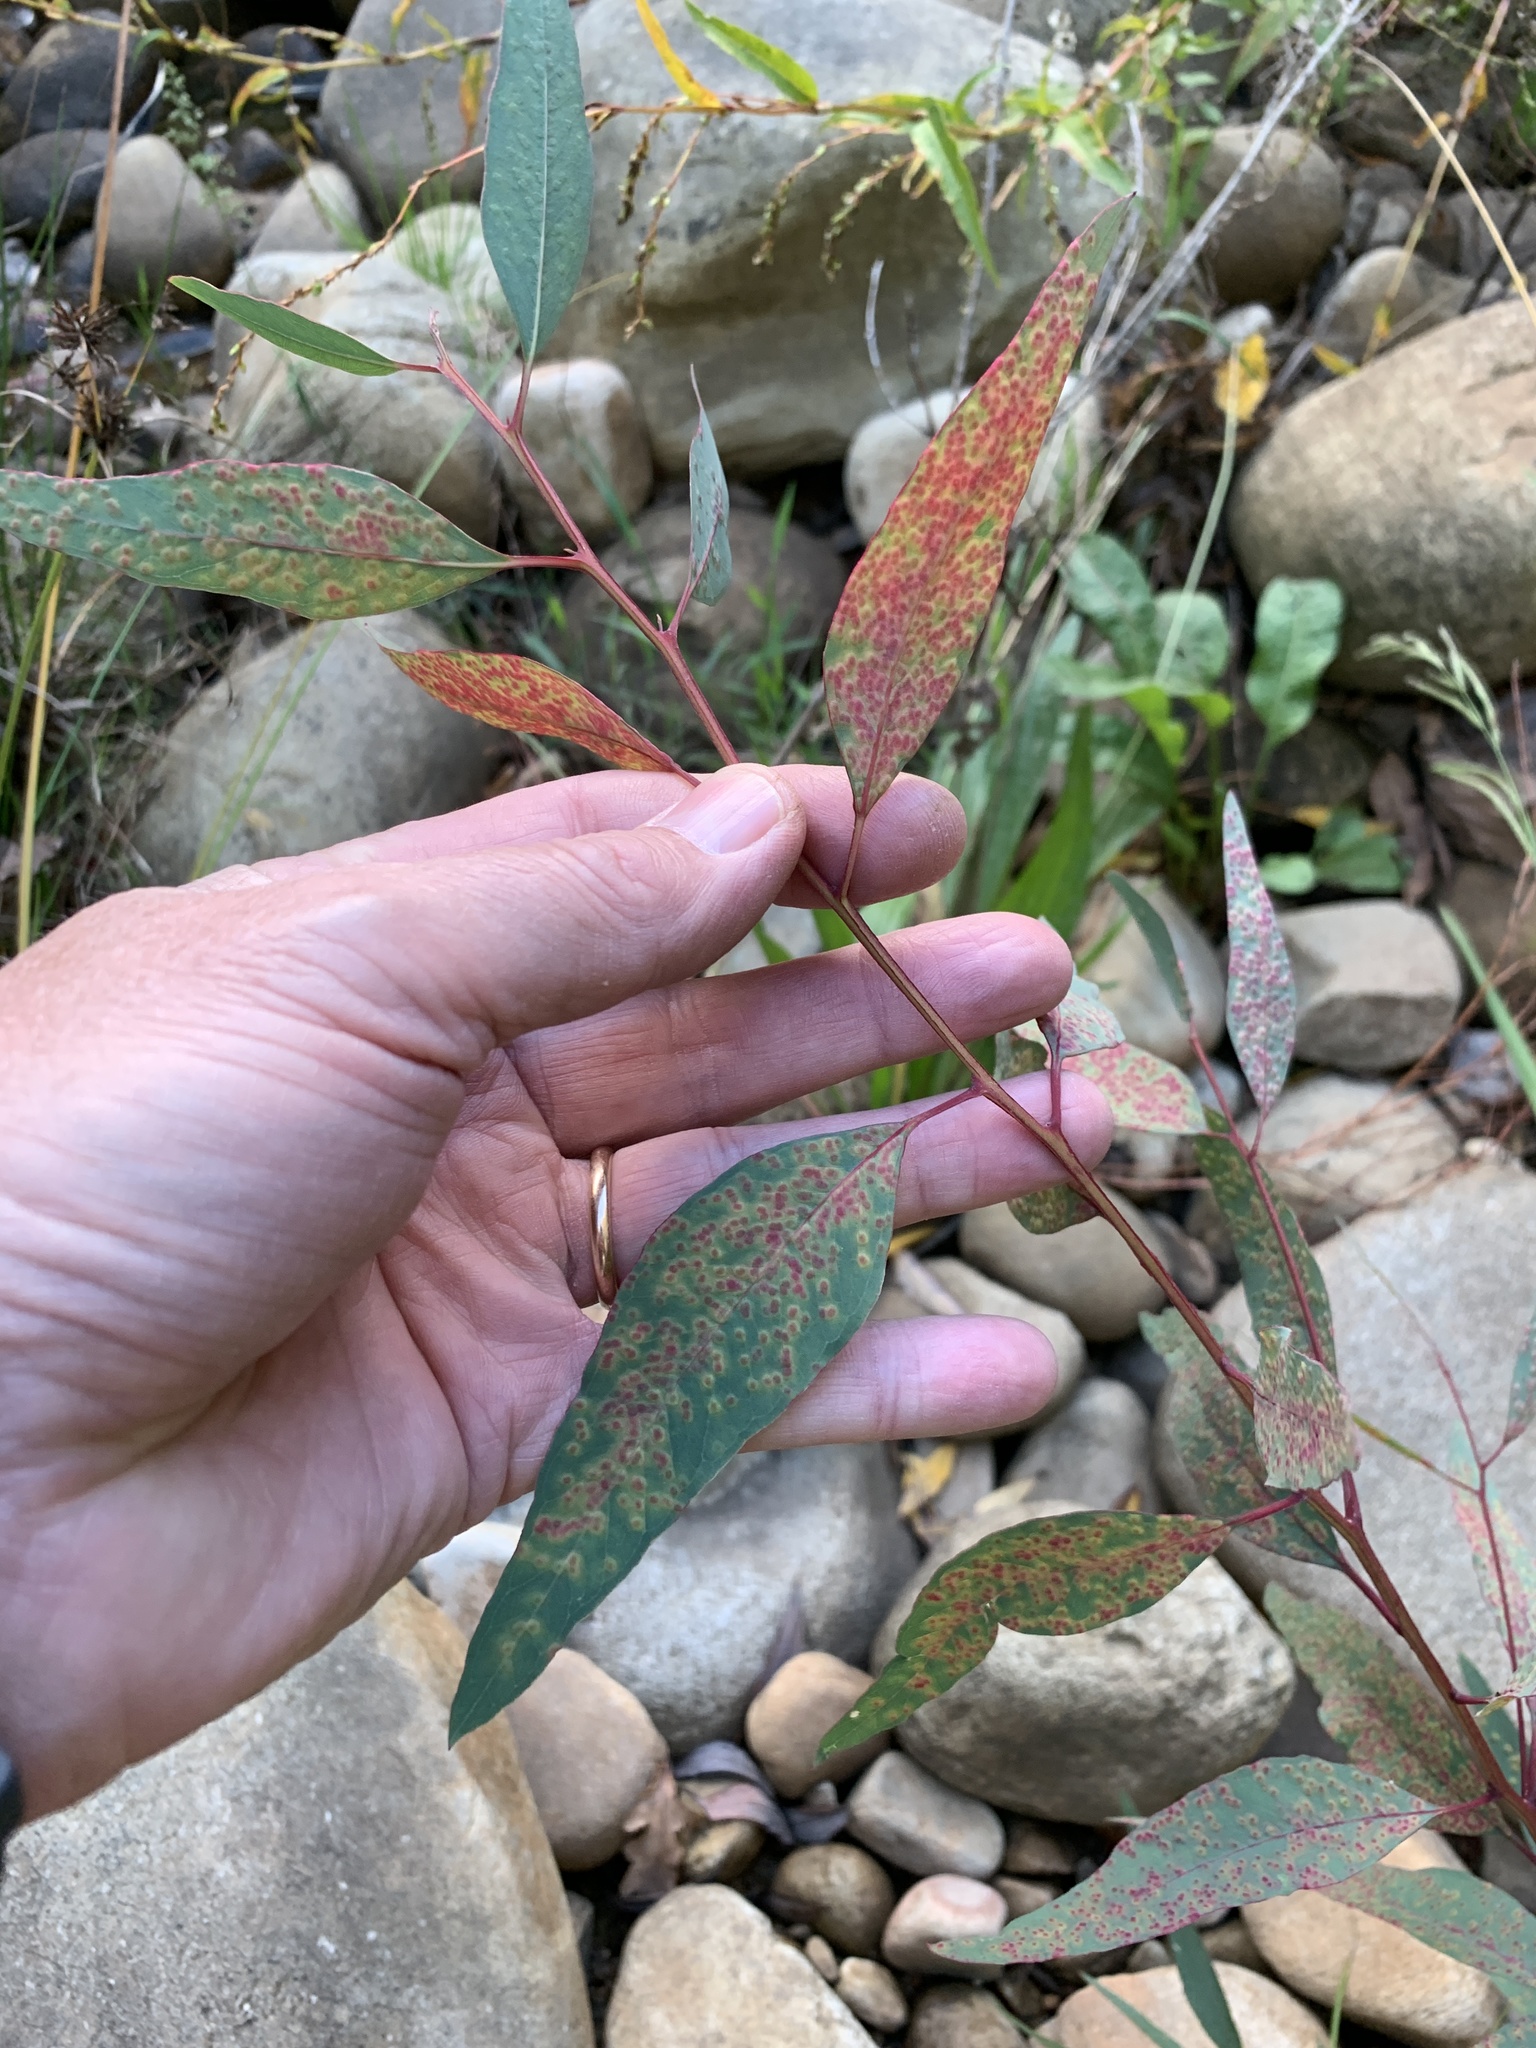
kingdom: Plantae
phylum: Tracheophyta
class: Magnoliopsida
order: Myrtales
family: Myrtaceae
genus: Eucalyptus
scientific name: Eucalyptus camaldulensis
